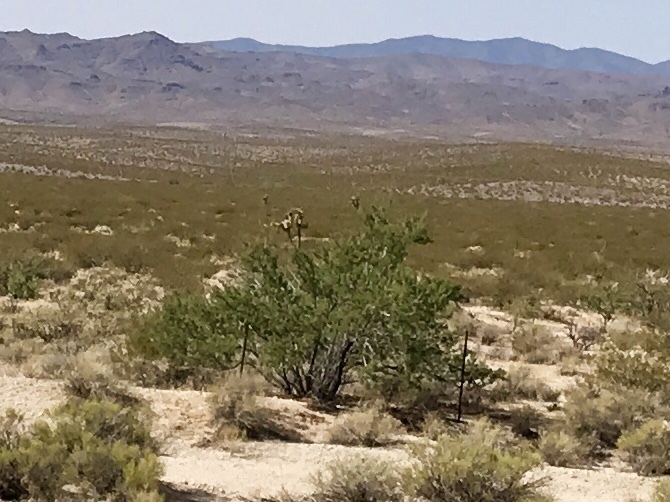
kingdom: Plantae
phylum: Tracheophyta
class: Magnoliopsida
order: Fabales
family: Fabaceae
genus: Senegalia
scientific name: Senegalia greggii
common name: Texas-mimosa
